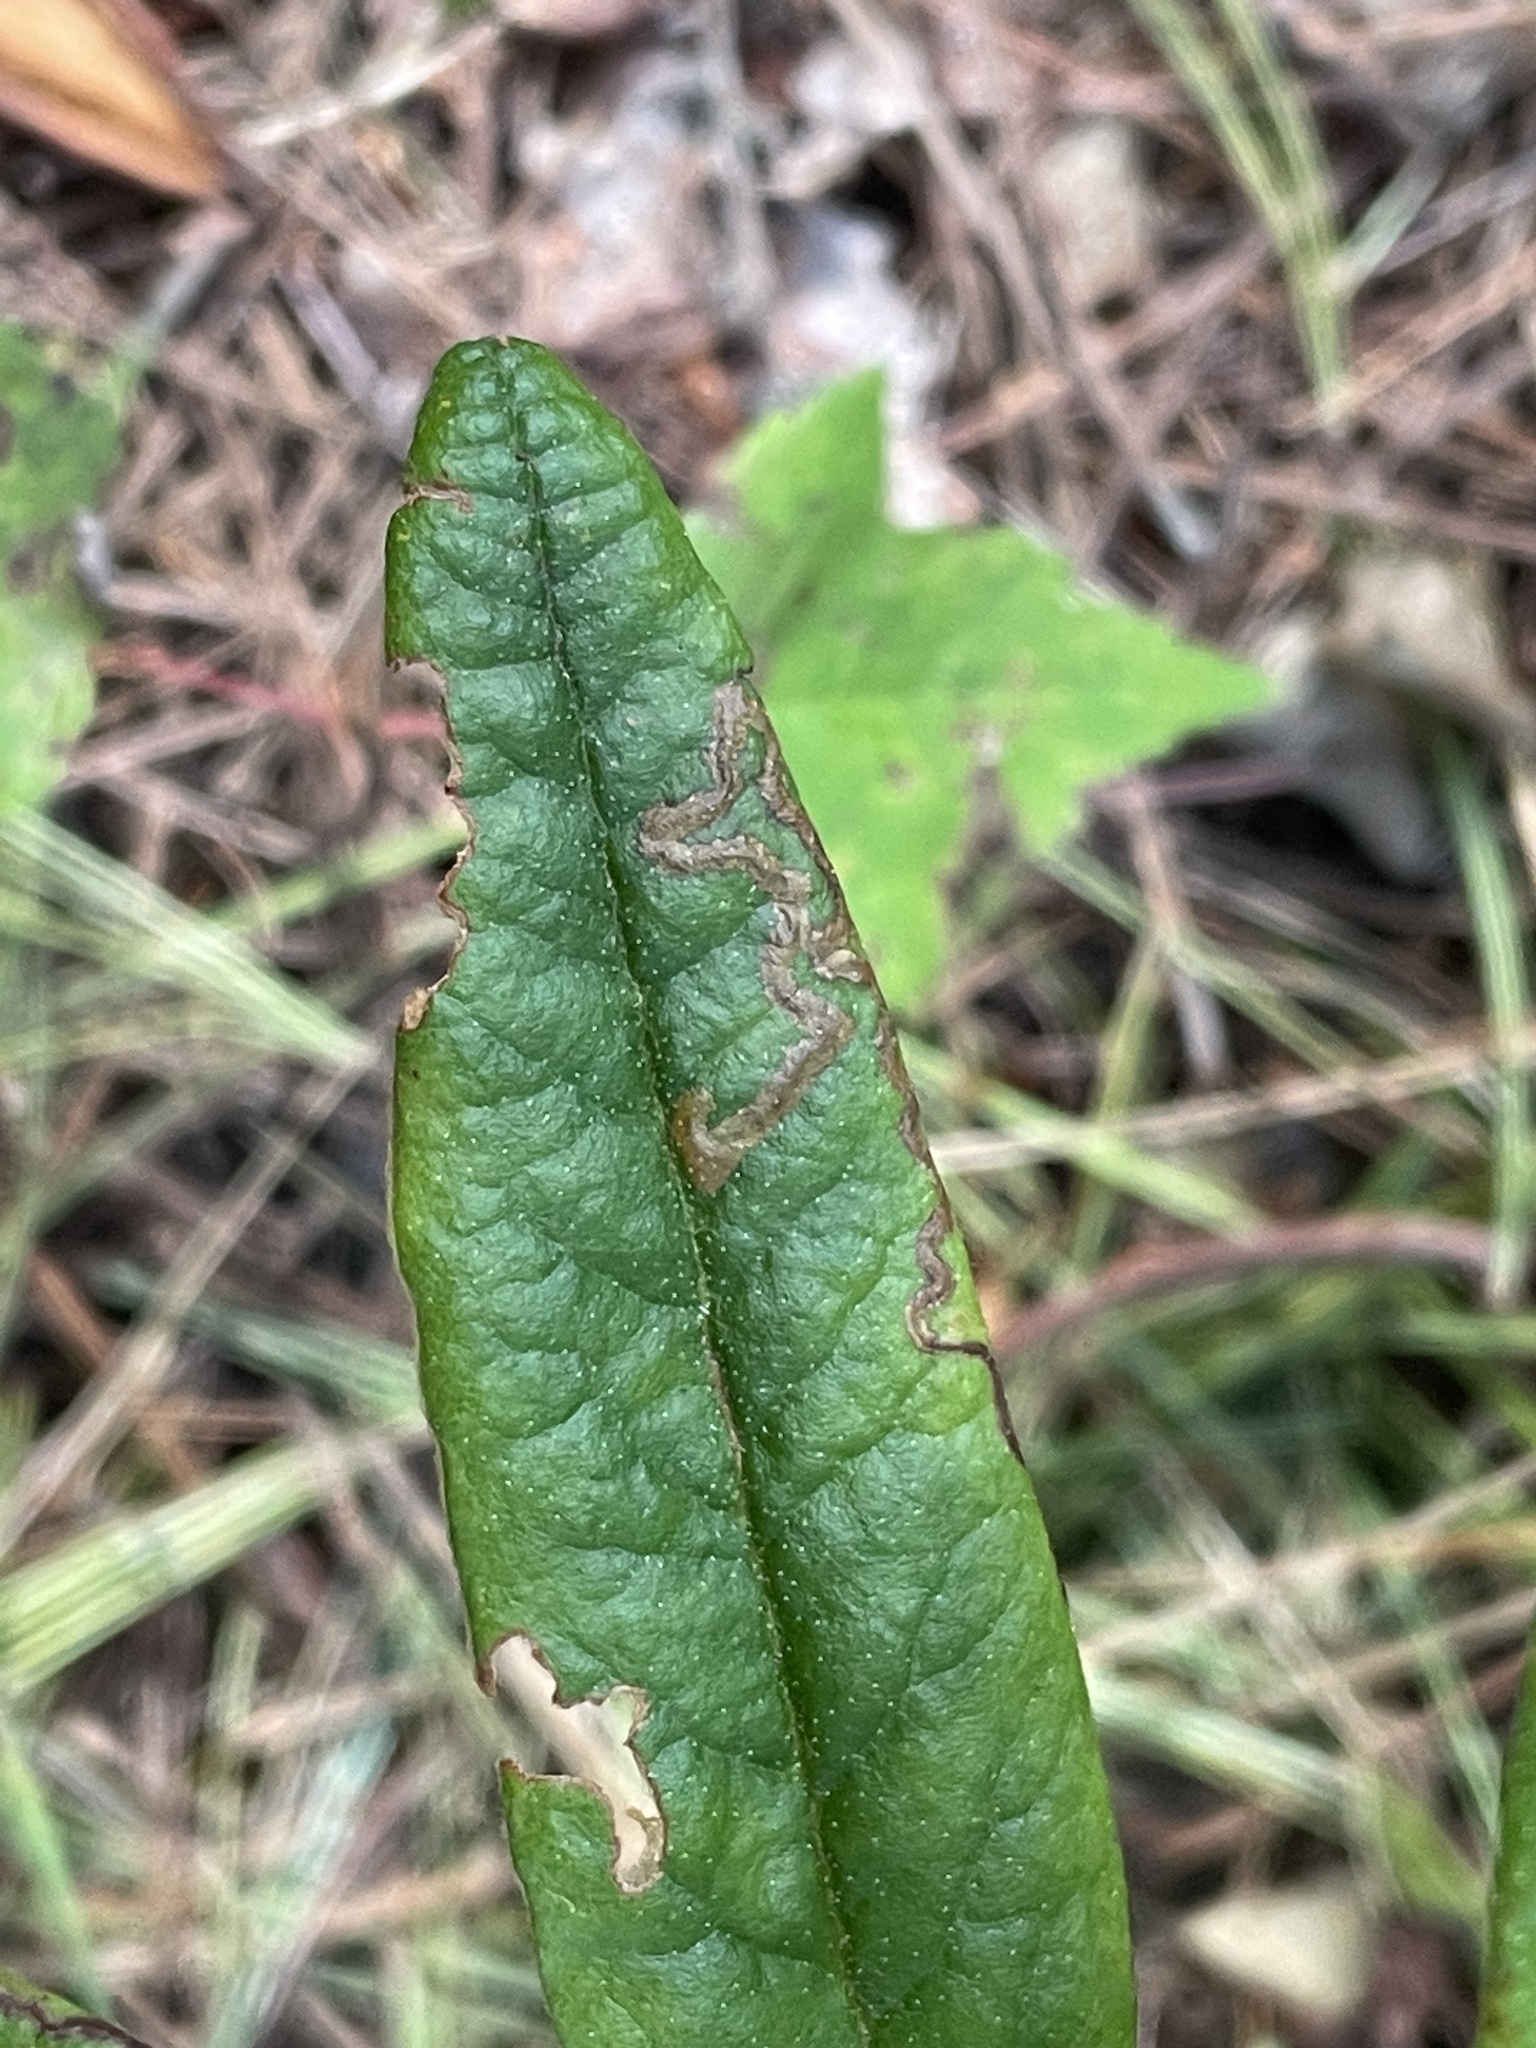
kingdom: Animalia
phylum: Arthropoda
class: Insecta
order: Lepidoptera
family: Nepticulidae
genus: Stigmella
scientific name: Stigmella corylifoliella
